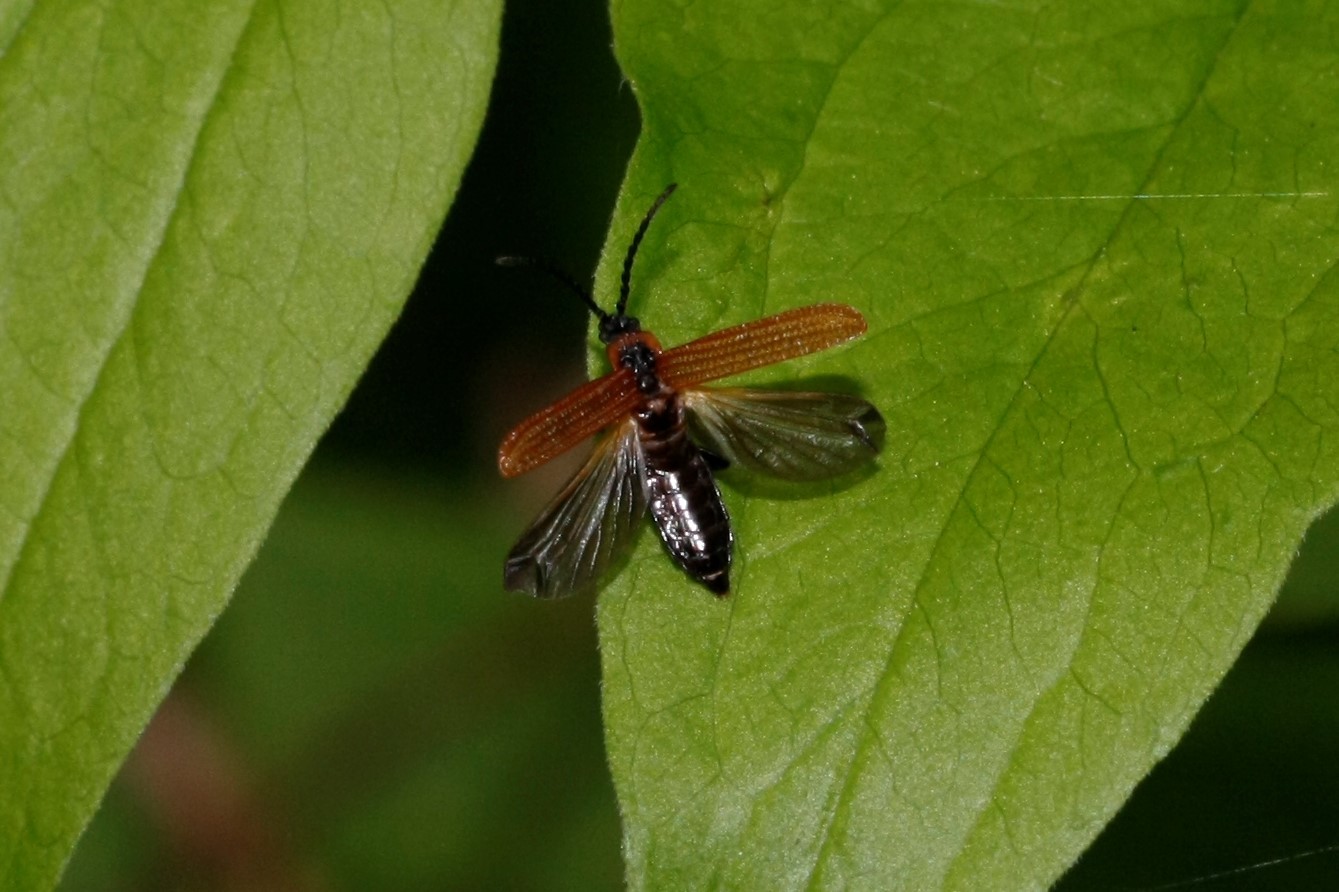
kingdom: Animalia
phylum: Arthropoda
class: Insecta
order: Coleoptera
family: Lycidae
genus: Erotides
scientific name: Erotides cosnardi
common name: Cosnard's net-winged beetle
